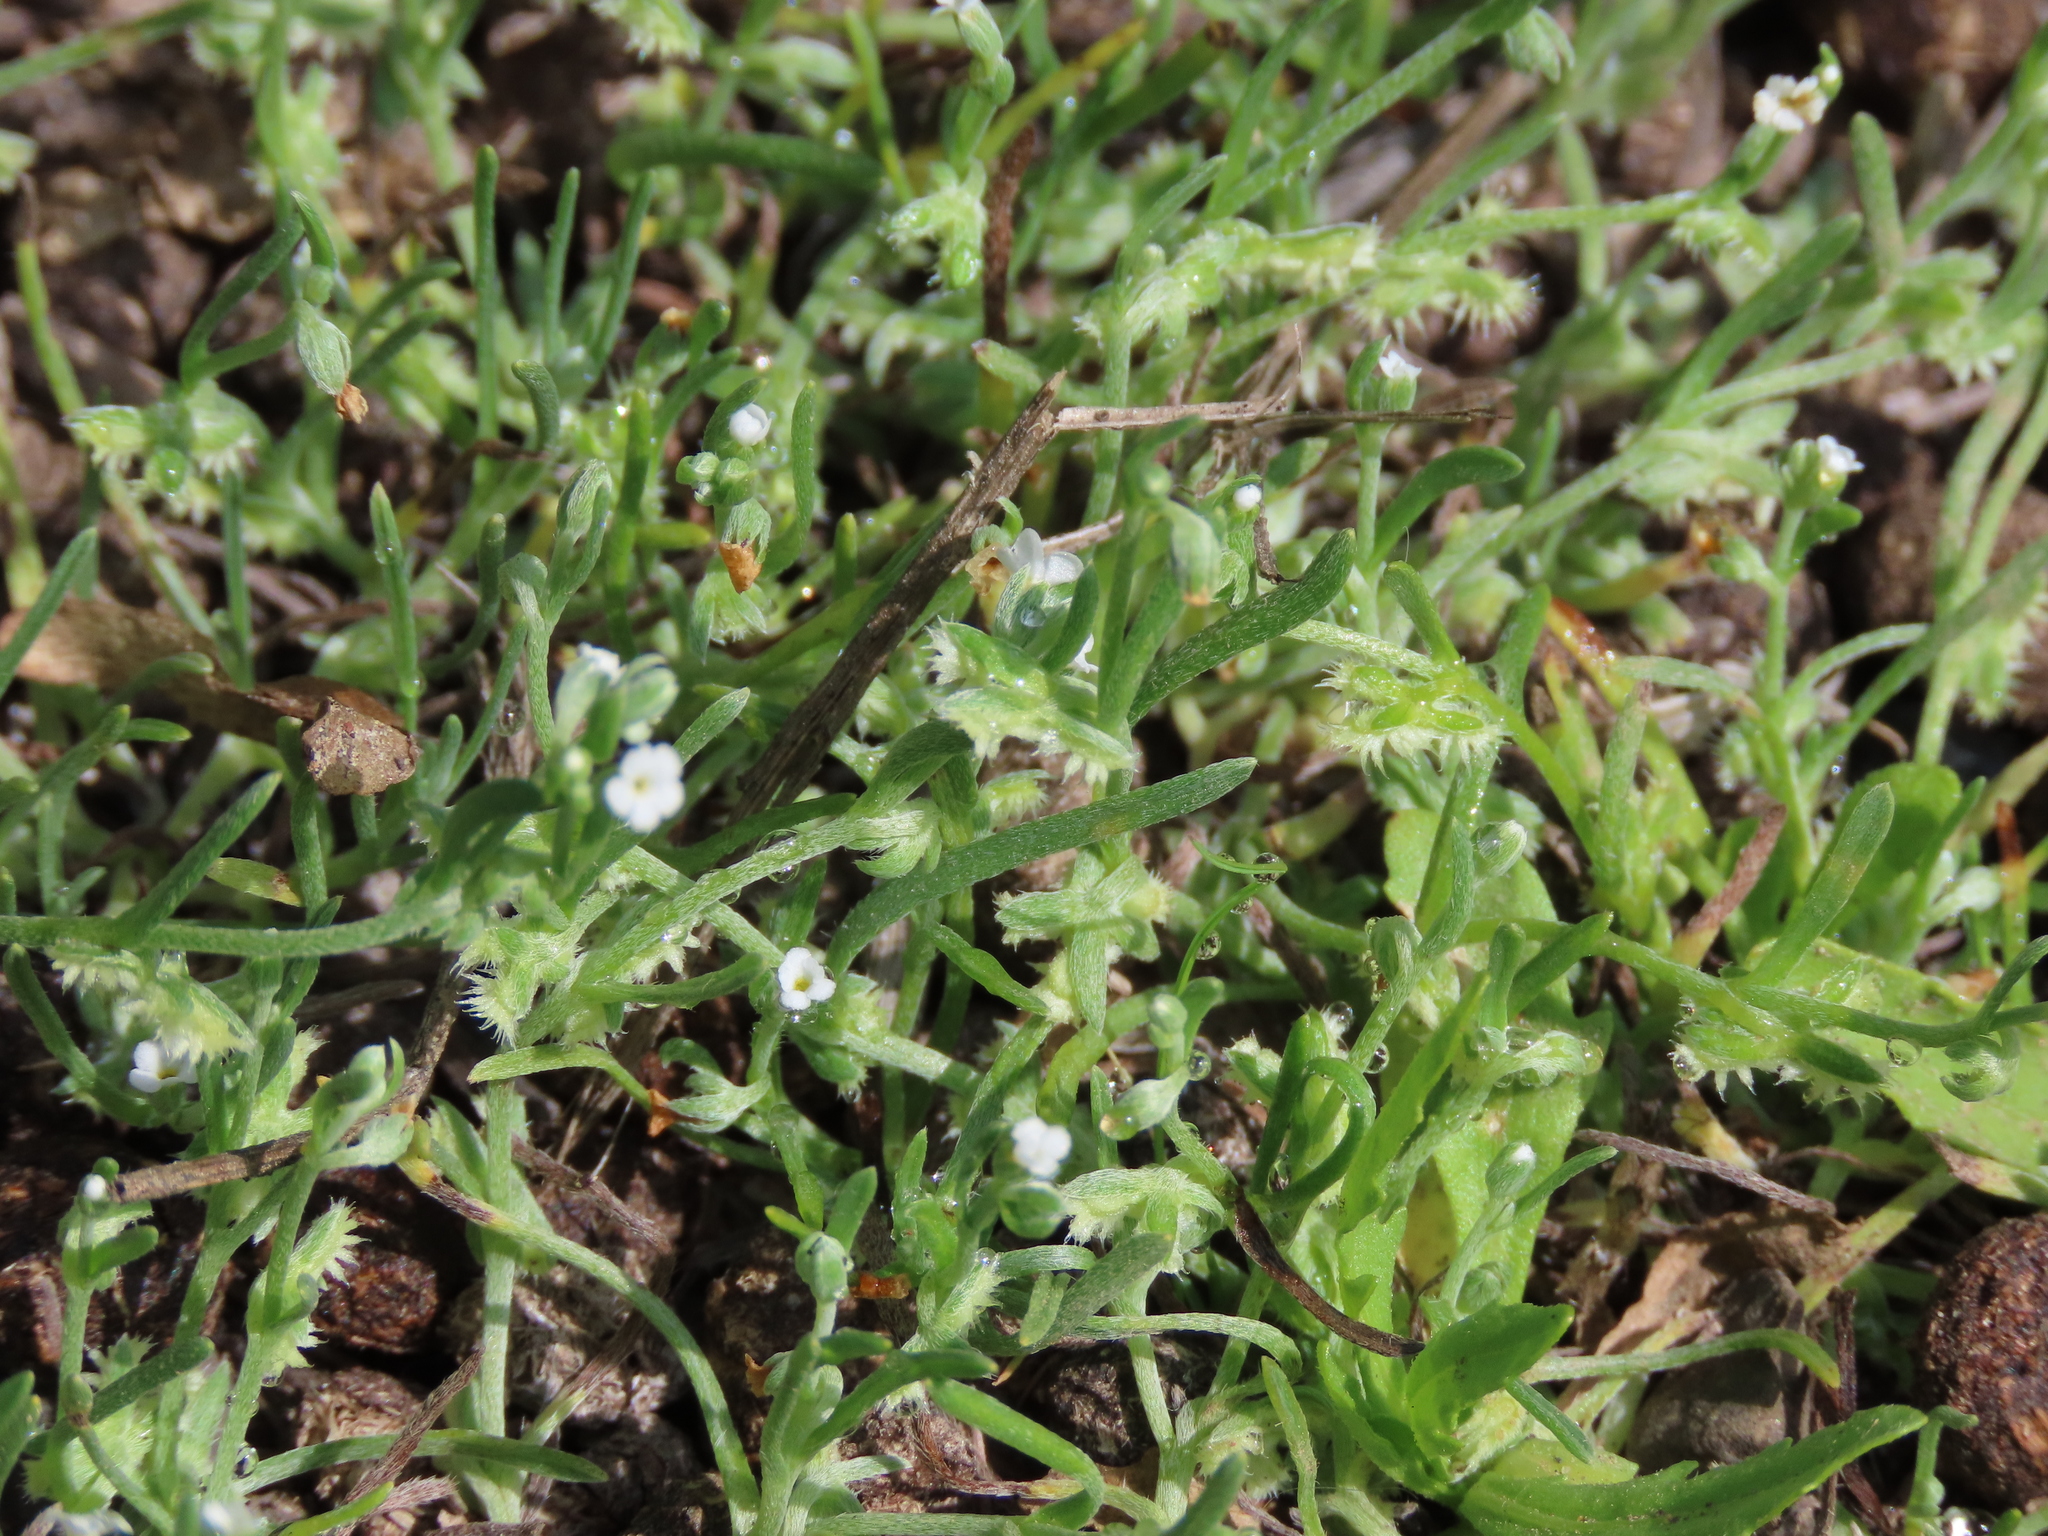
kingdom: Plantae
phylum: Tracheophyta
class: Magnoliopsida
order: Boraginales
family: Boraginaceae
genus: Pectocarya
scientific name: Pectocarya linearis
